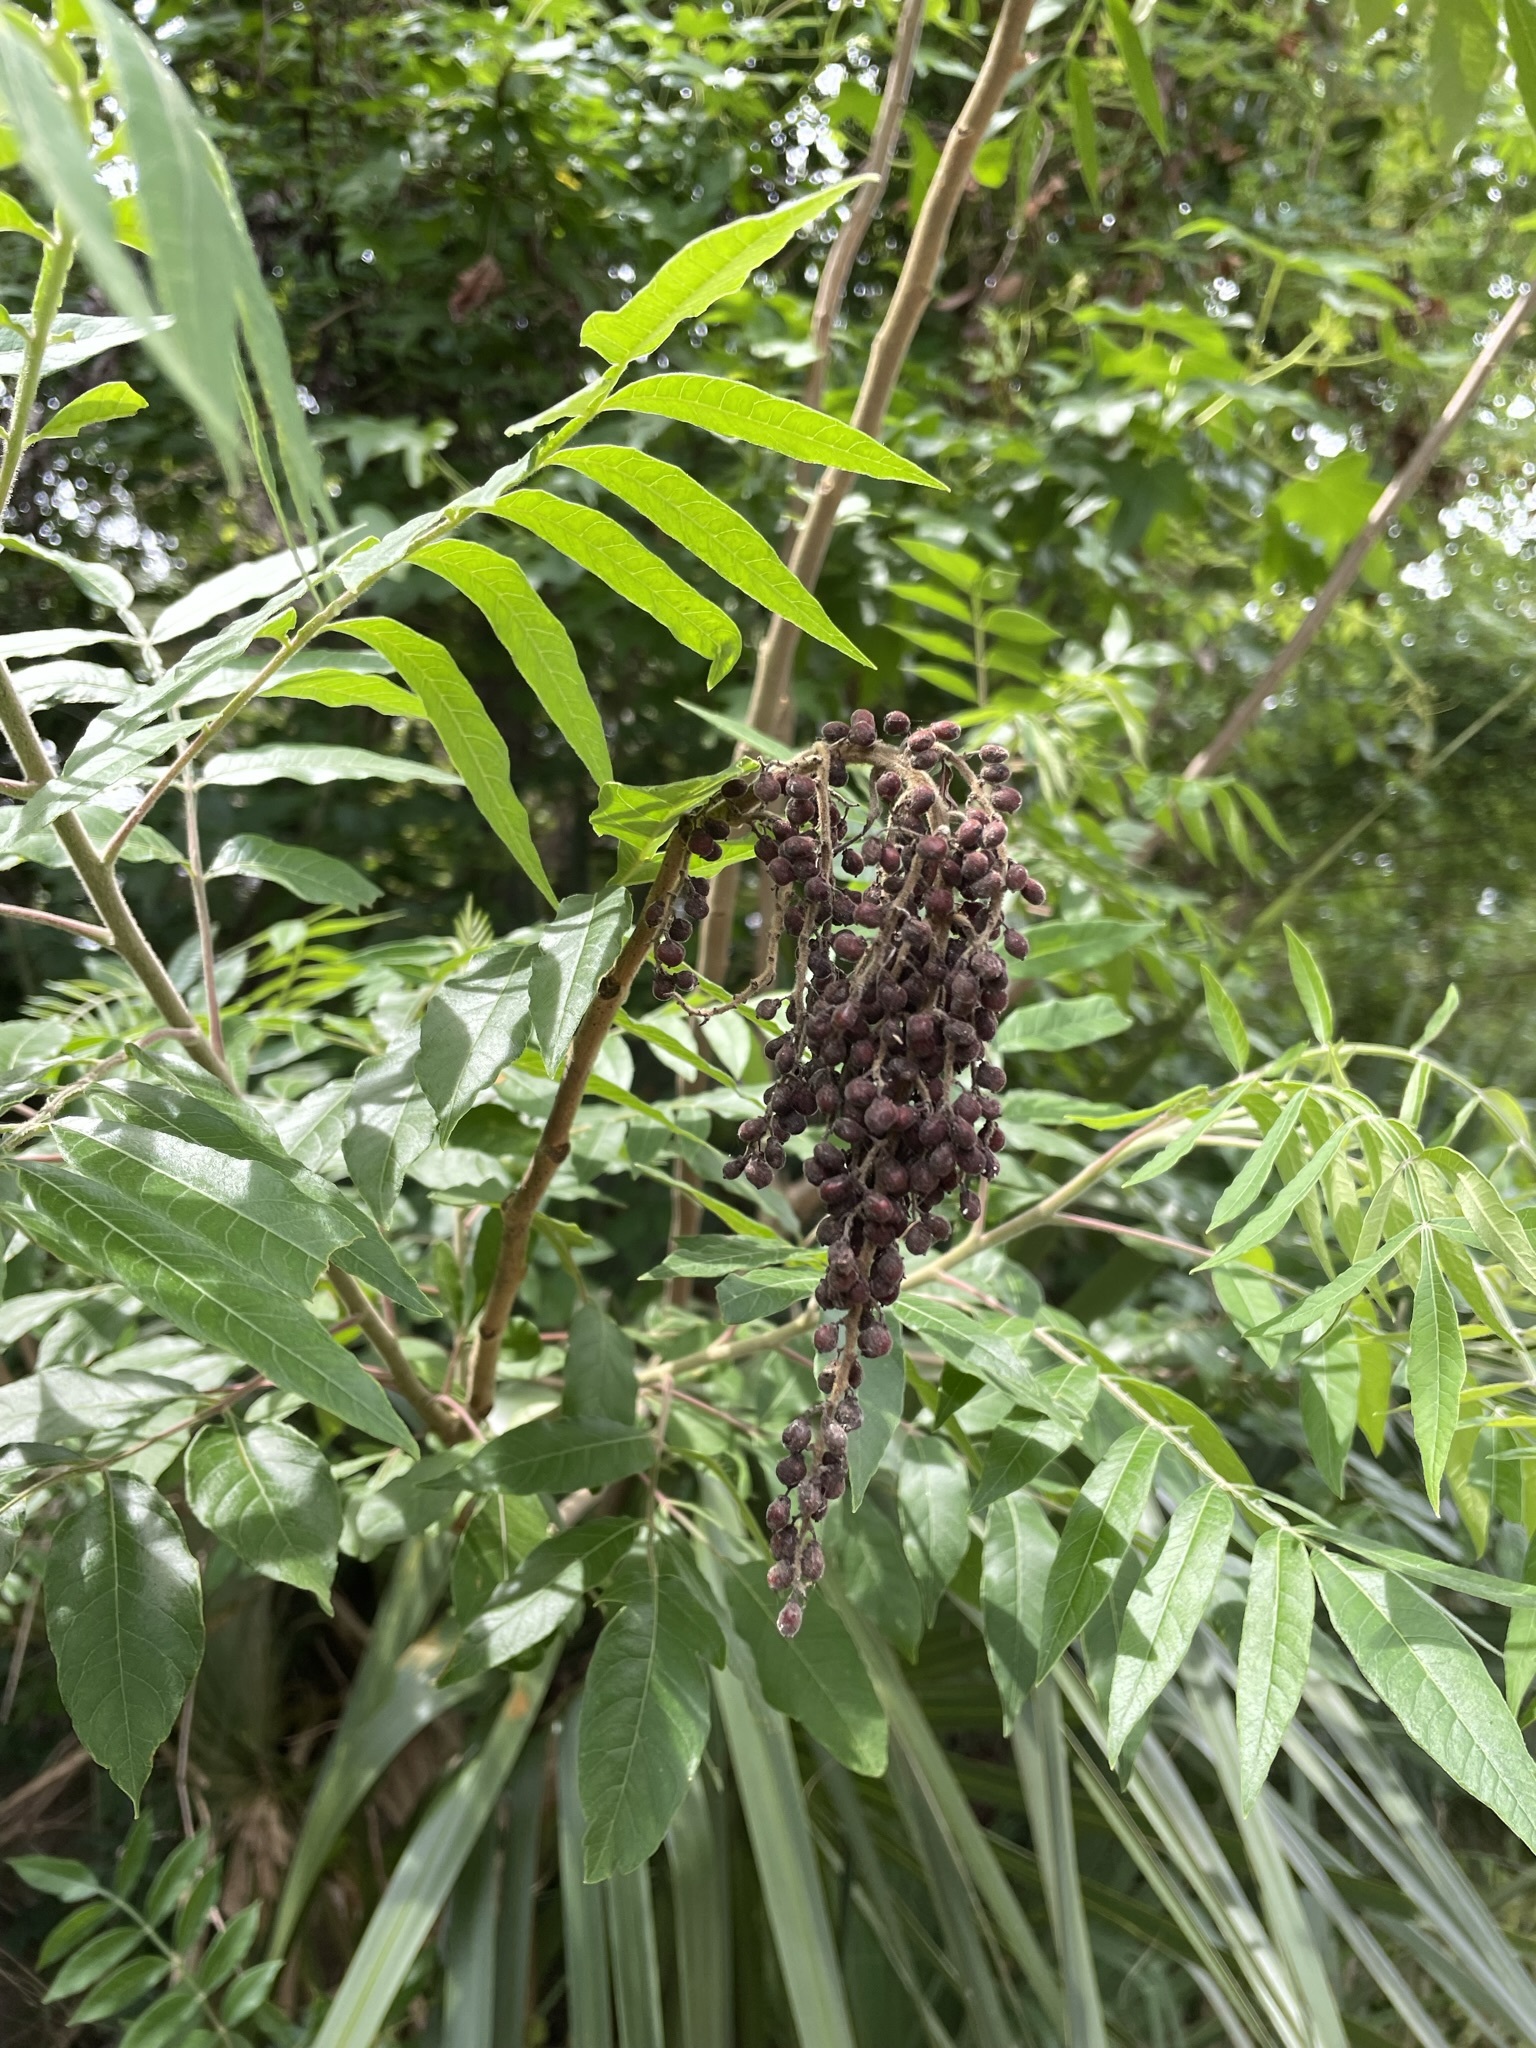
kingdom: Plantae
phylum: Tracheophyta
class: Magnoliopsida
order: Sapindales
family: Anacardiaceae
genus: Rhus
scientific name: Rhus copallina
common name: Shining sumac
